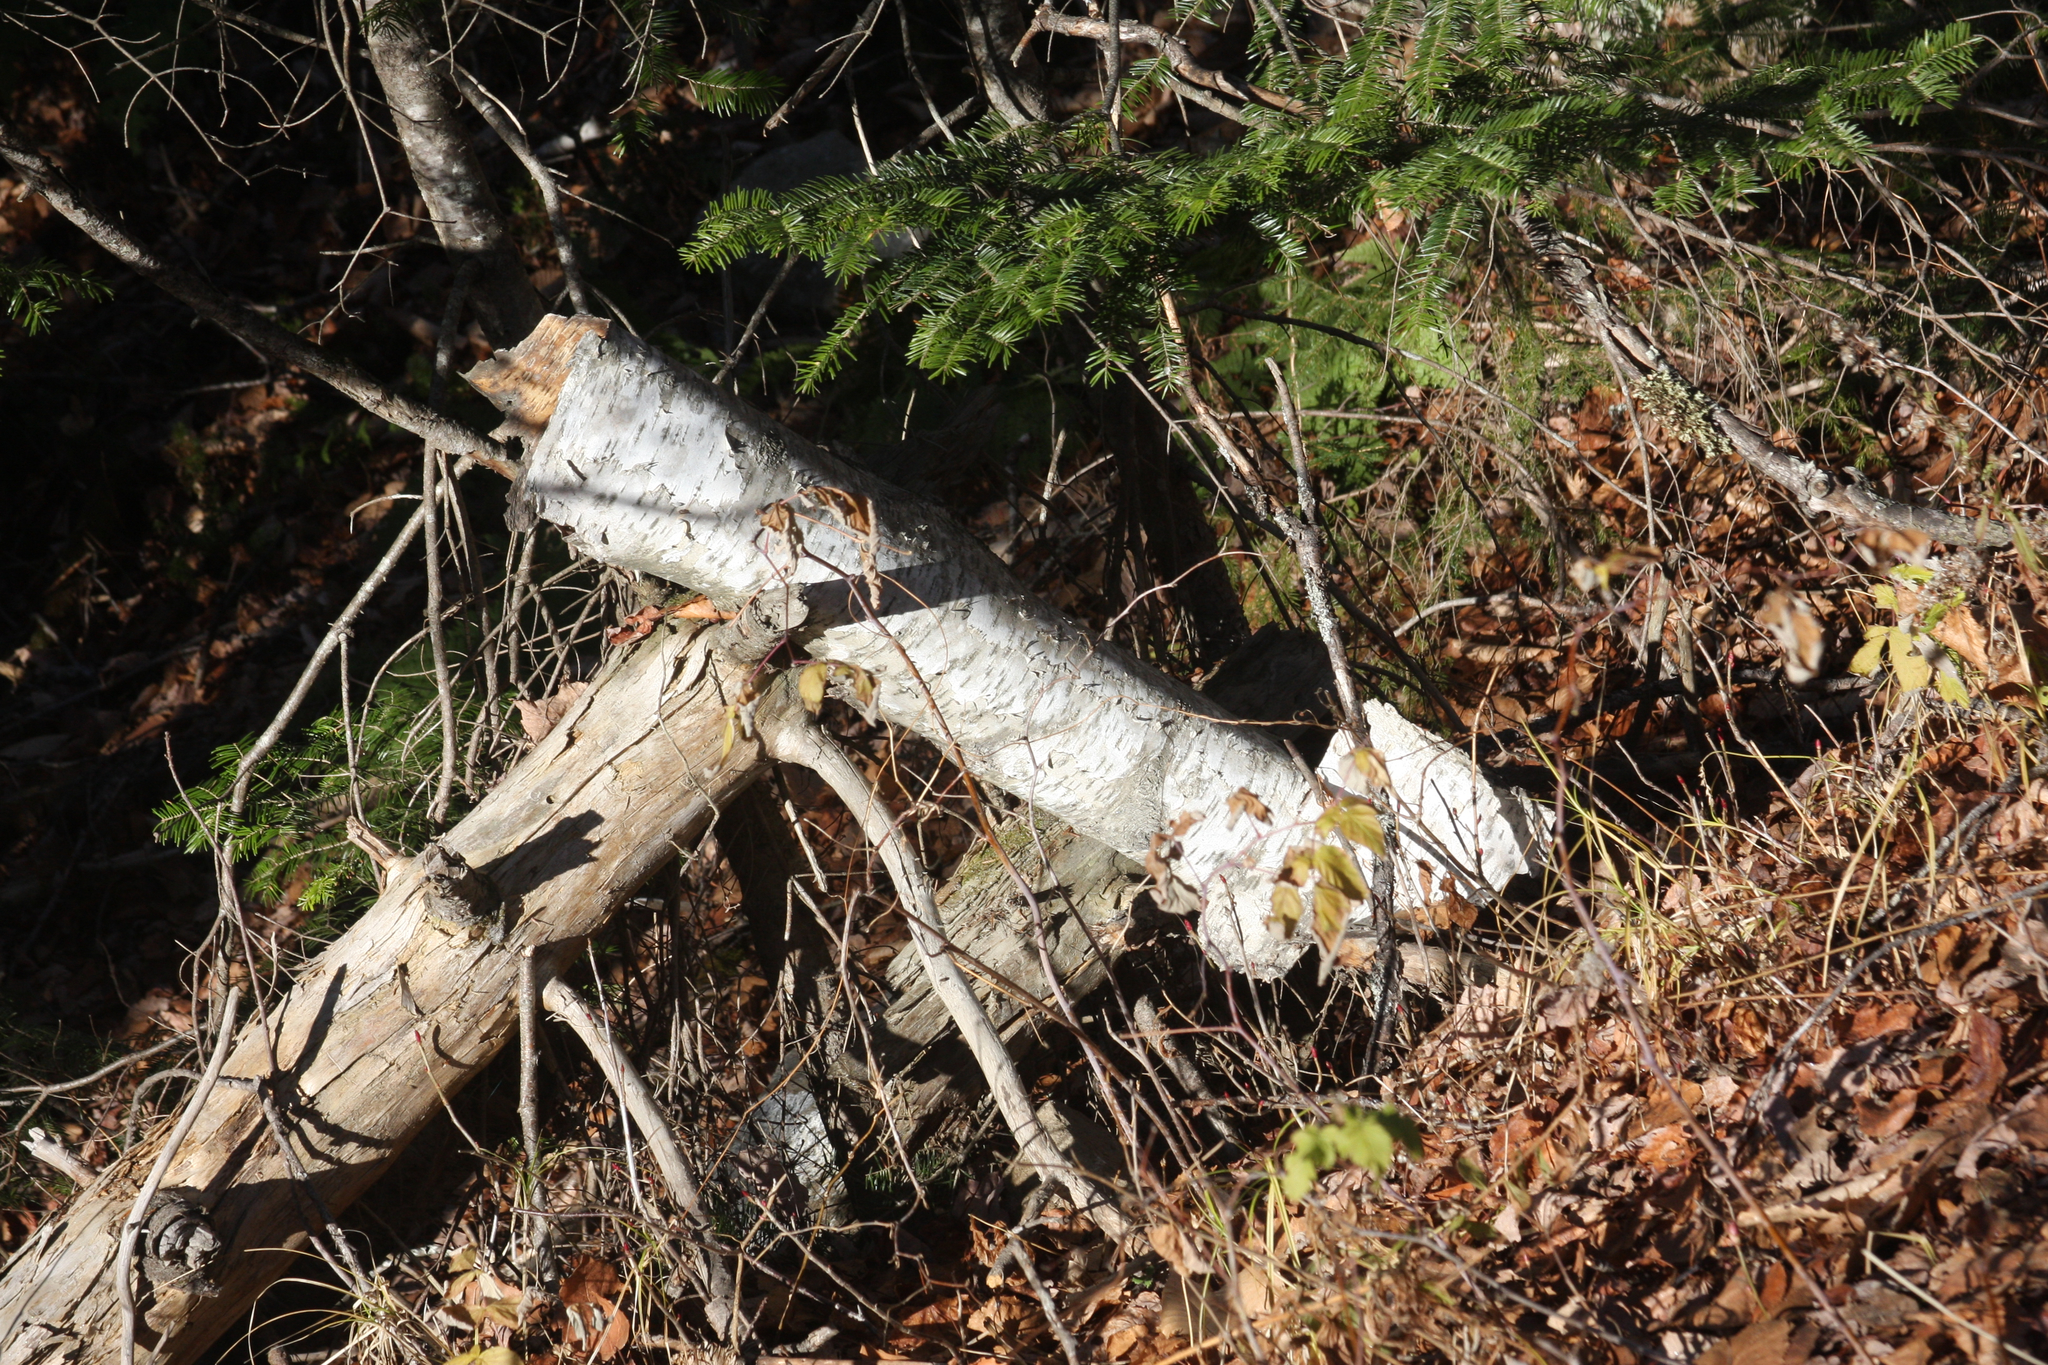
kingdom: Plantae
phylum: Tracheophyta
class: Magnoliopsida
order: Fagales
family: Betulaceae
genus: Betula
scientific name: Betula papyrifera
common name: Paper birch
